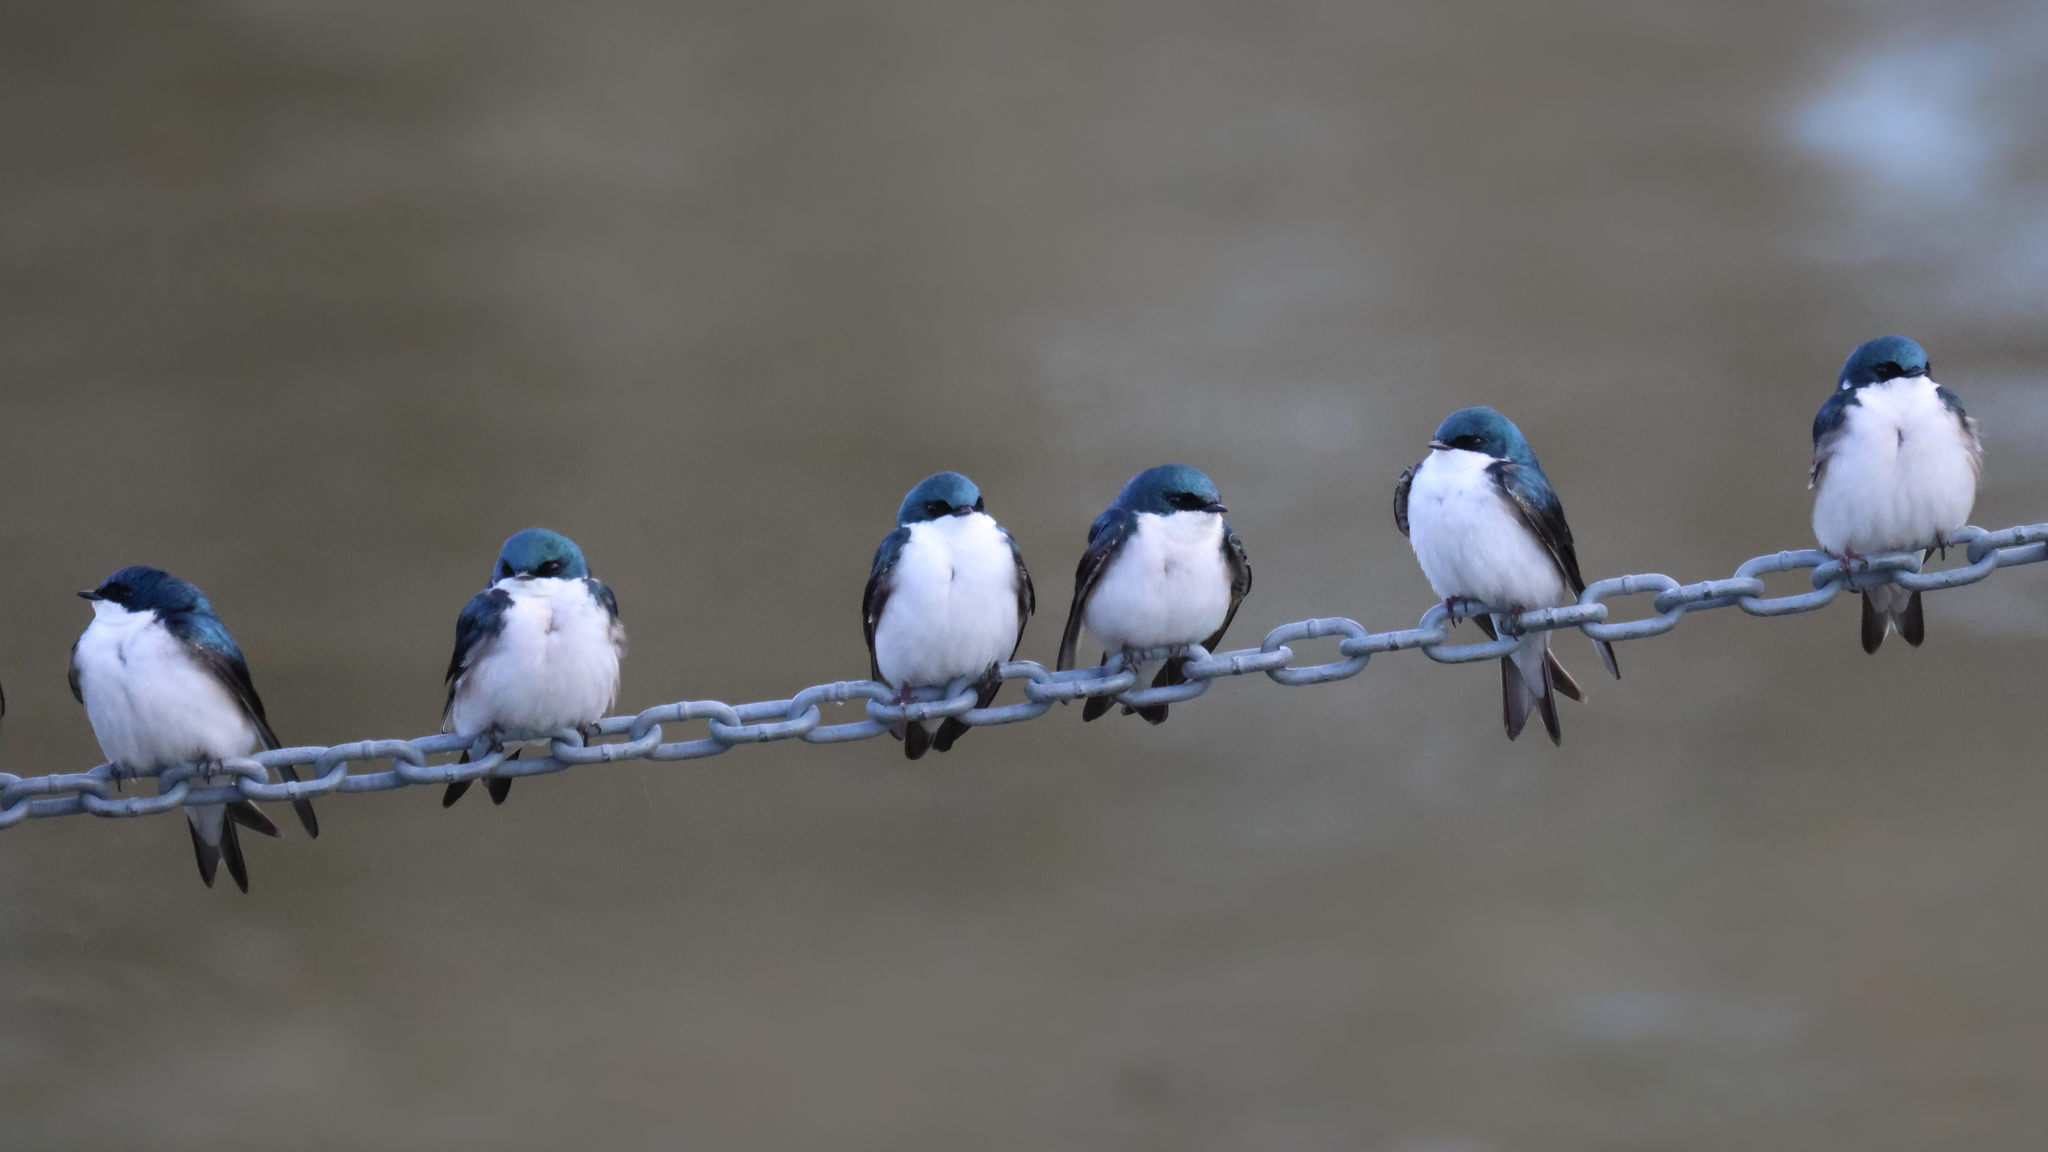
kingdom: Animalia
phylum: Chordata
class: Aves
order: Passeriformes
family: Hirundinidae
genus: Tachycineta
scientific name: Tachycineta bicolor
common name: Tree swallow
